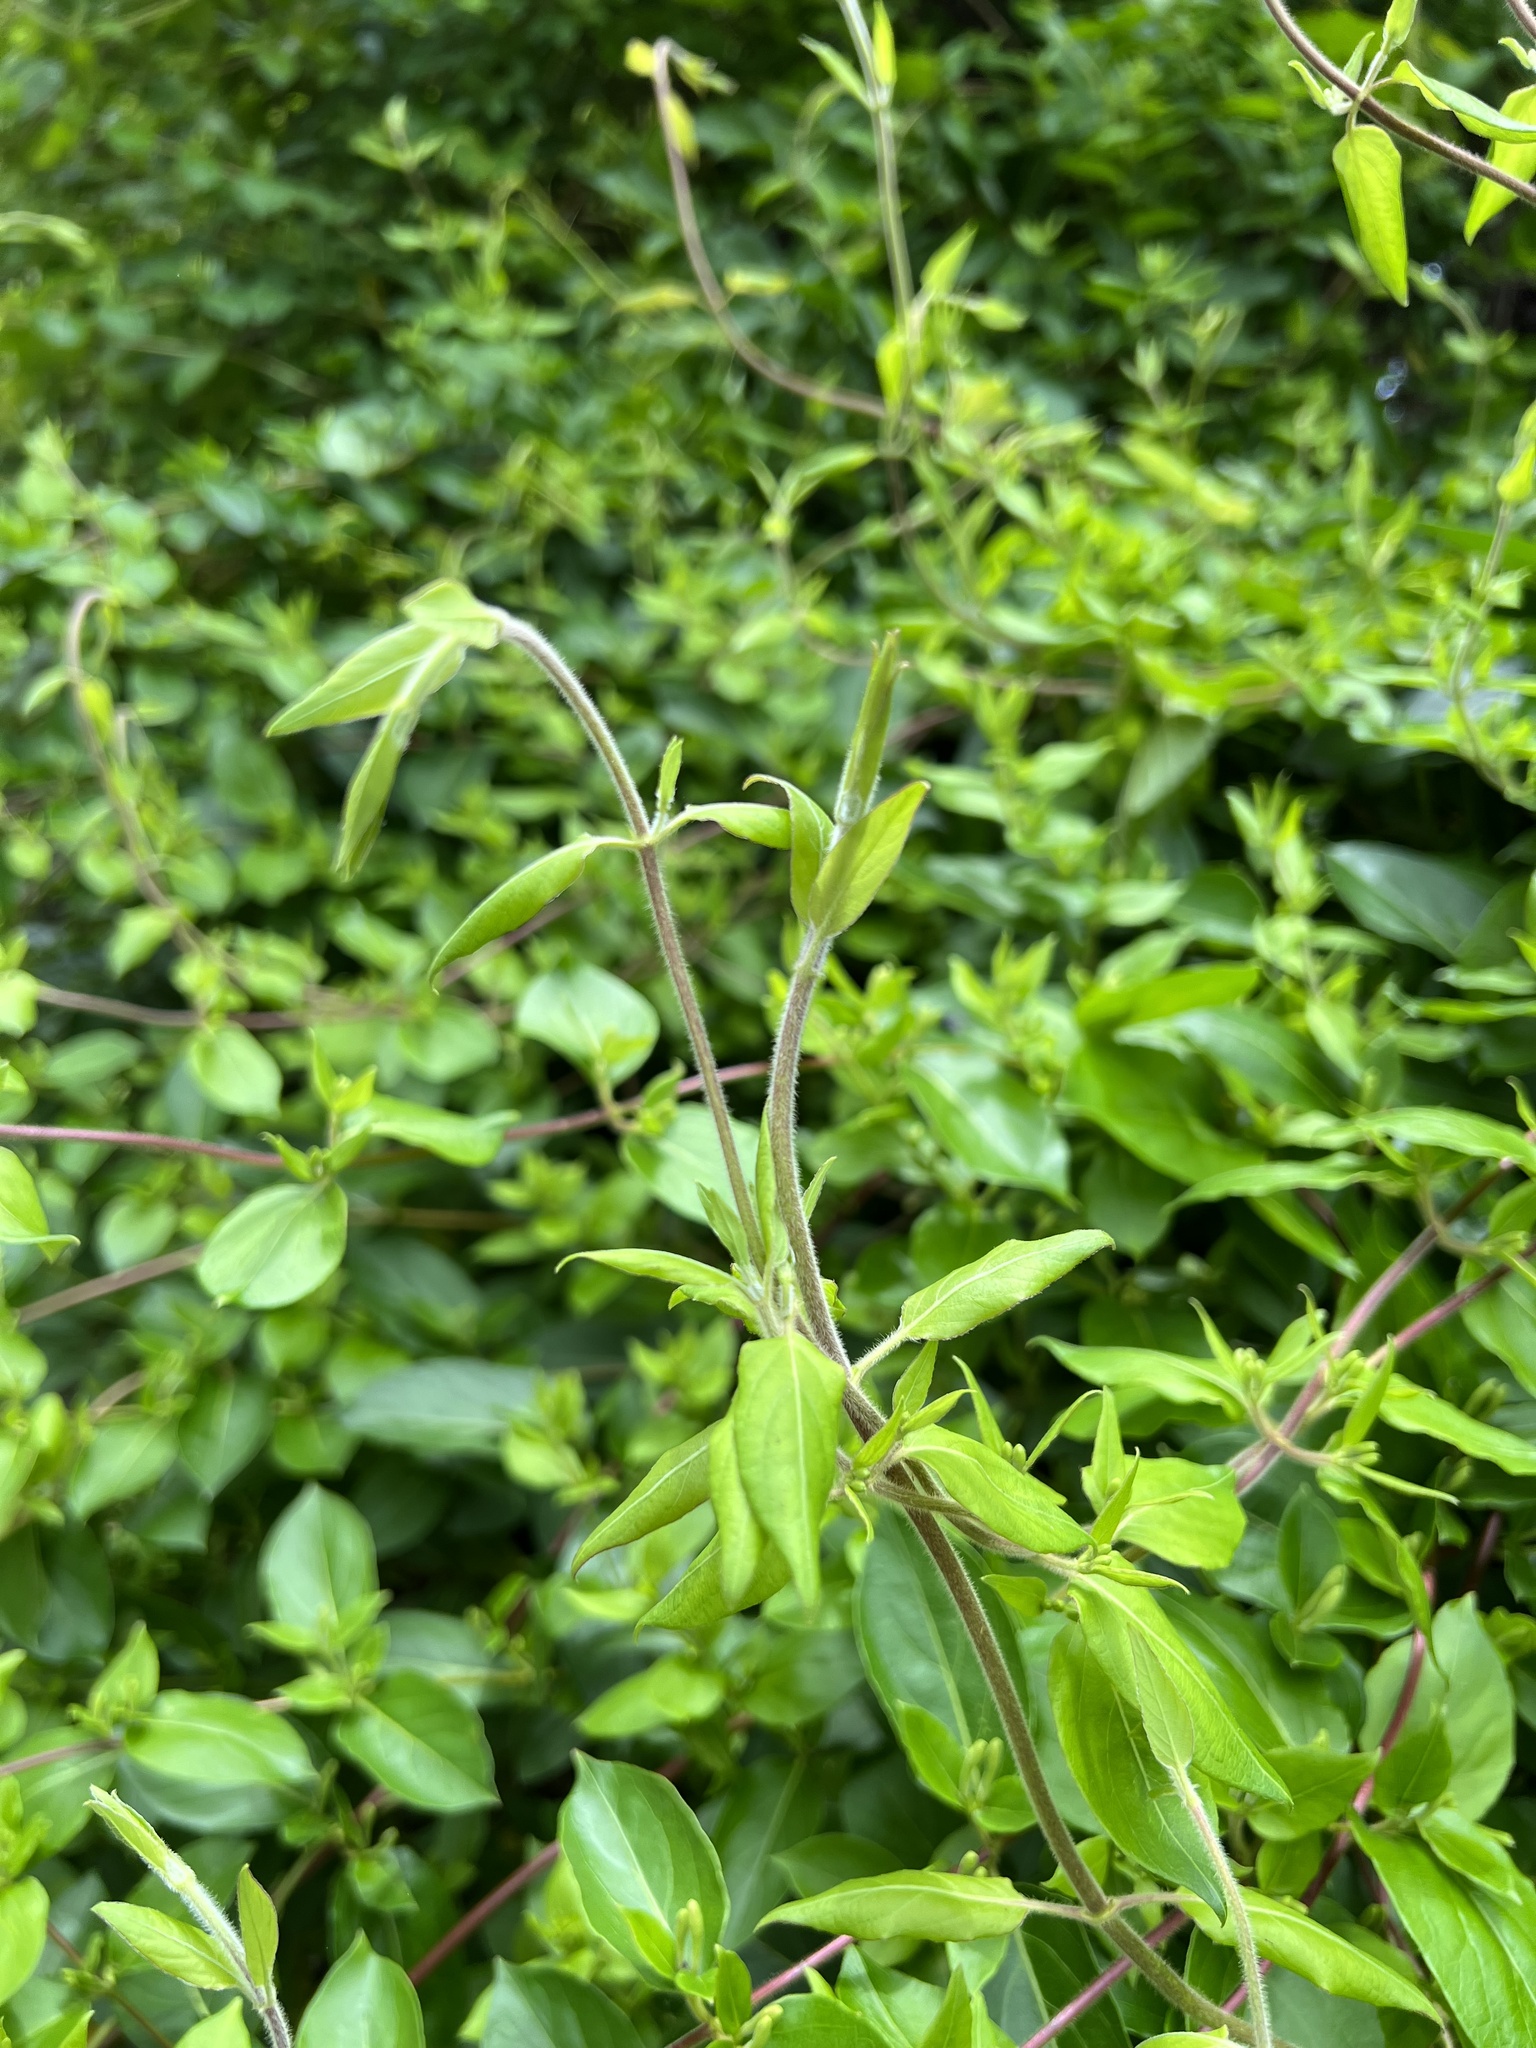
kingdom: Plantae
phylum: Tracheophyta
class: Magnoliopsida
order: Dipsacales
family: Caprifoliaceae
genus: Lonicera
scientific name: Lonicera japonica
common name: Japanese honeysuckle
